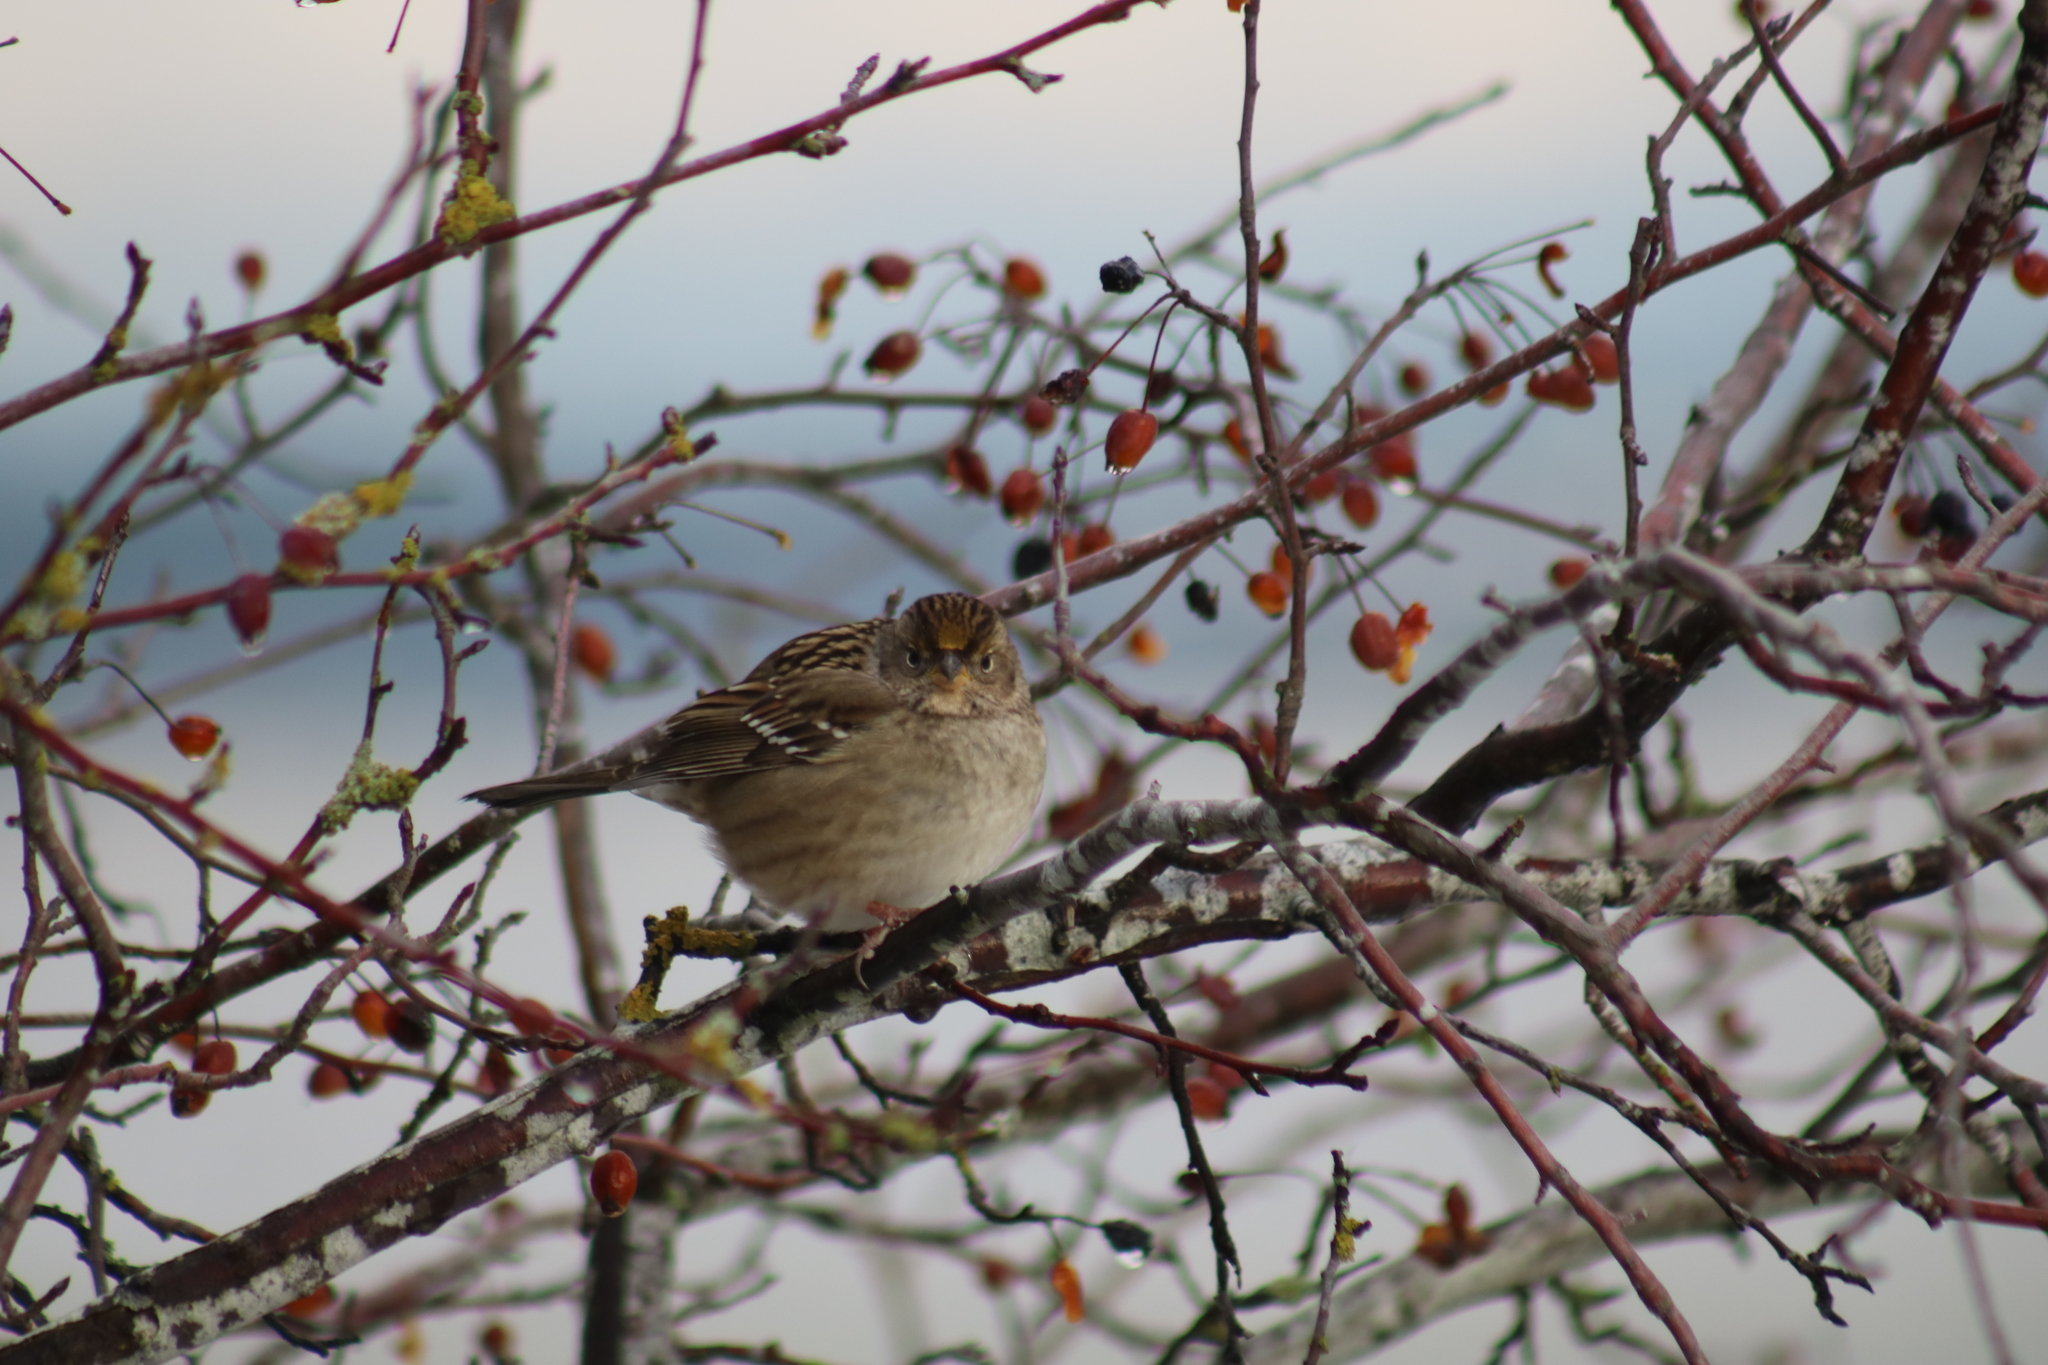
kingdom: Animalia
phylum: Chordata
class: Aves
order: Passeriformes
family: Passerellidae
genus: Zonotrichia
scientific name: Zonotrichia atricapilla
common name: Golden-crowned sparrow
